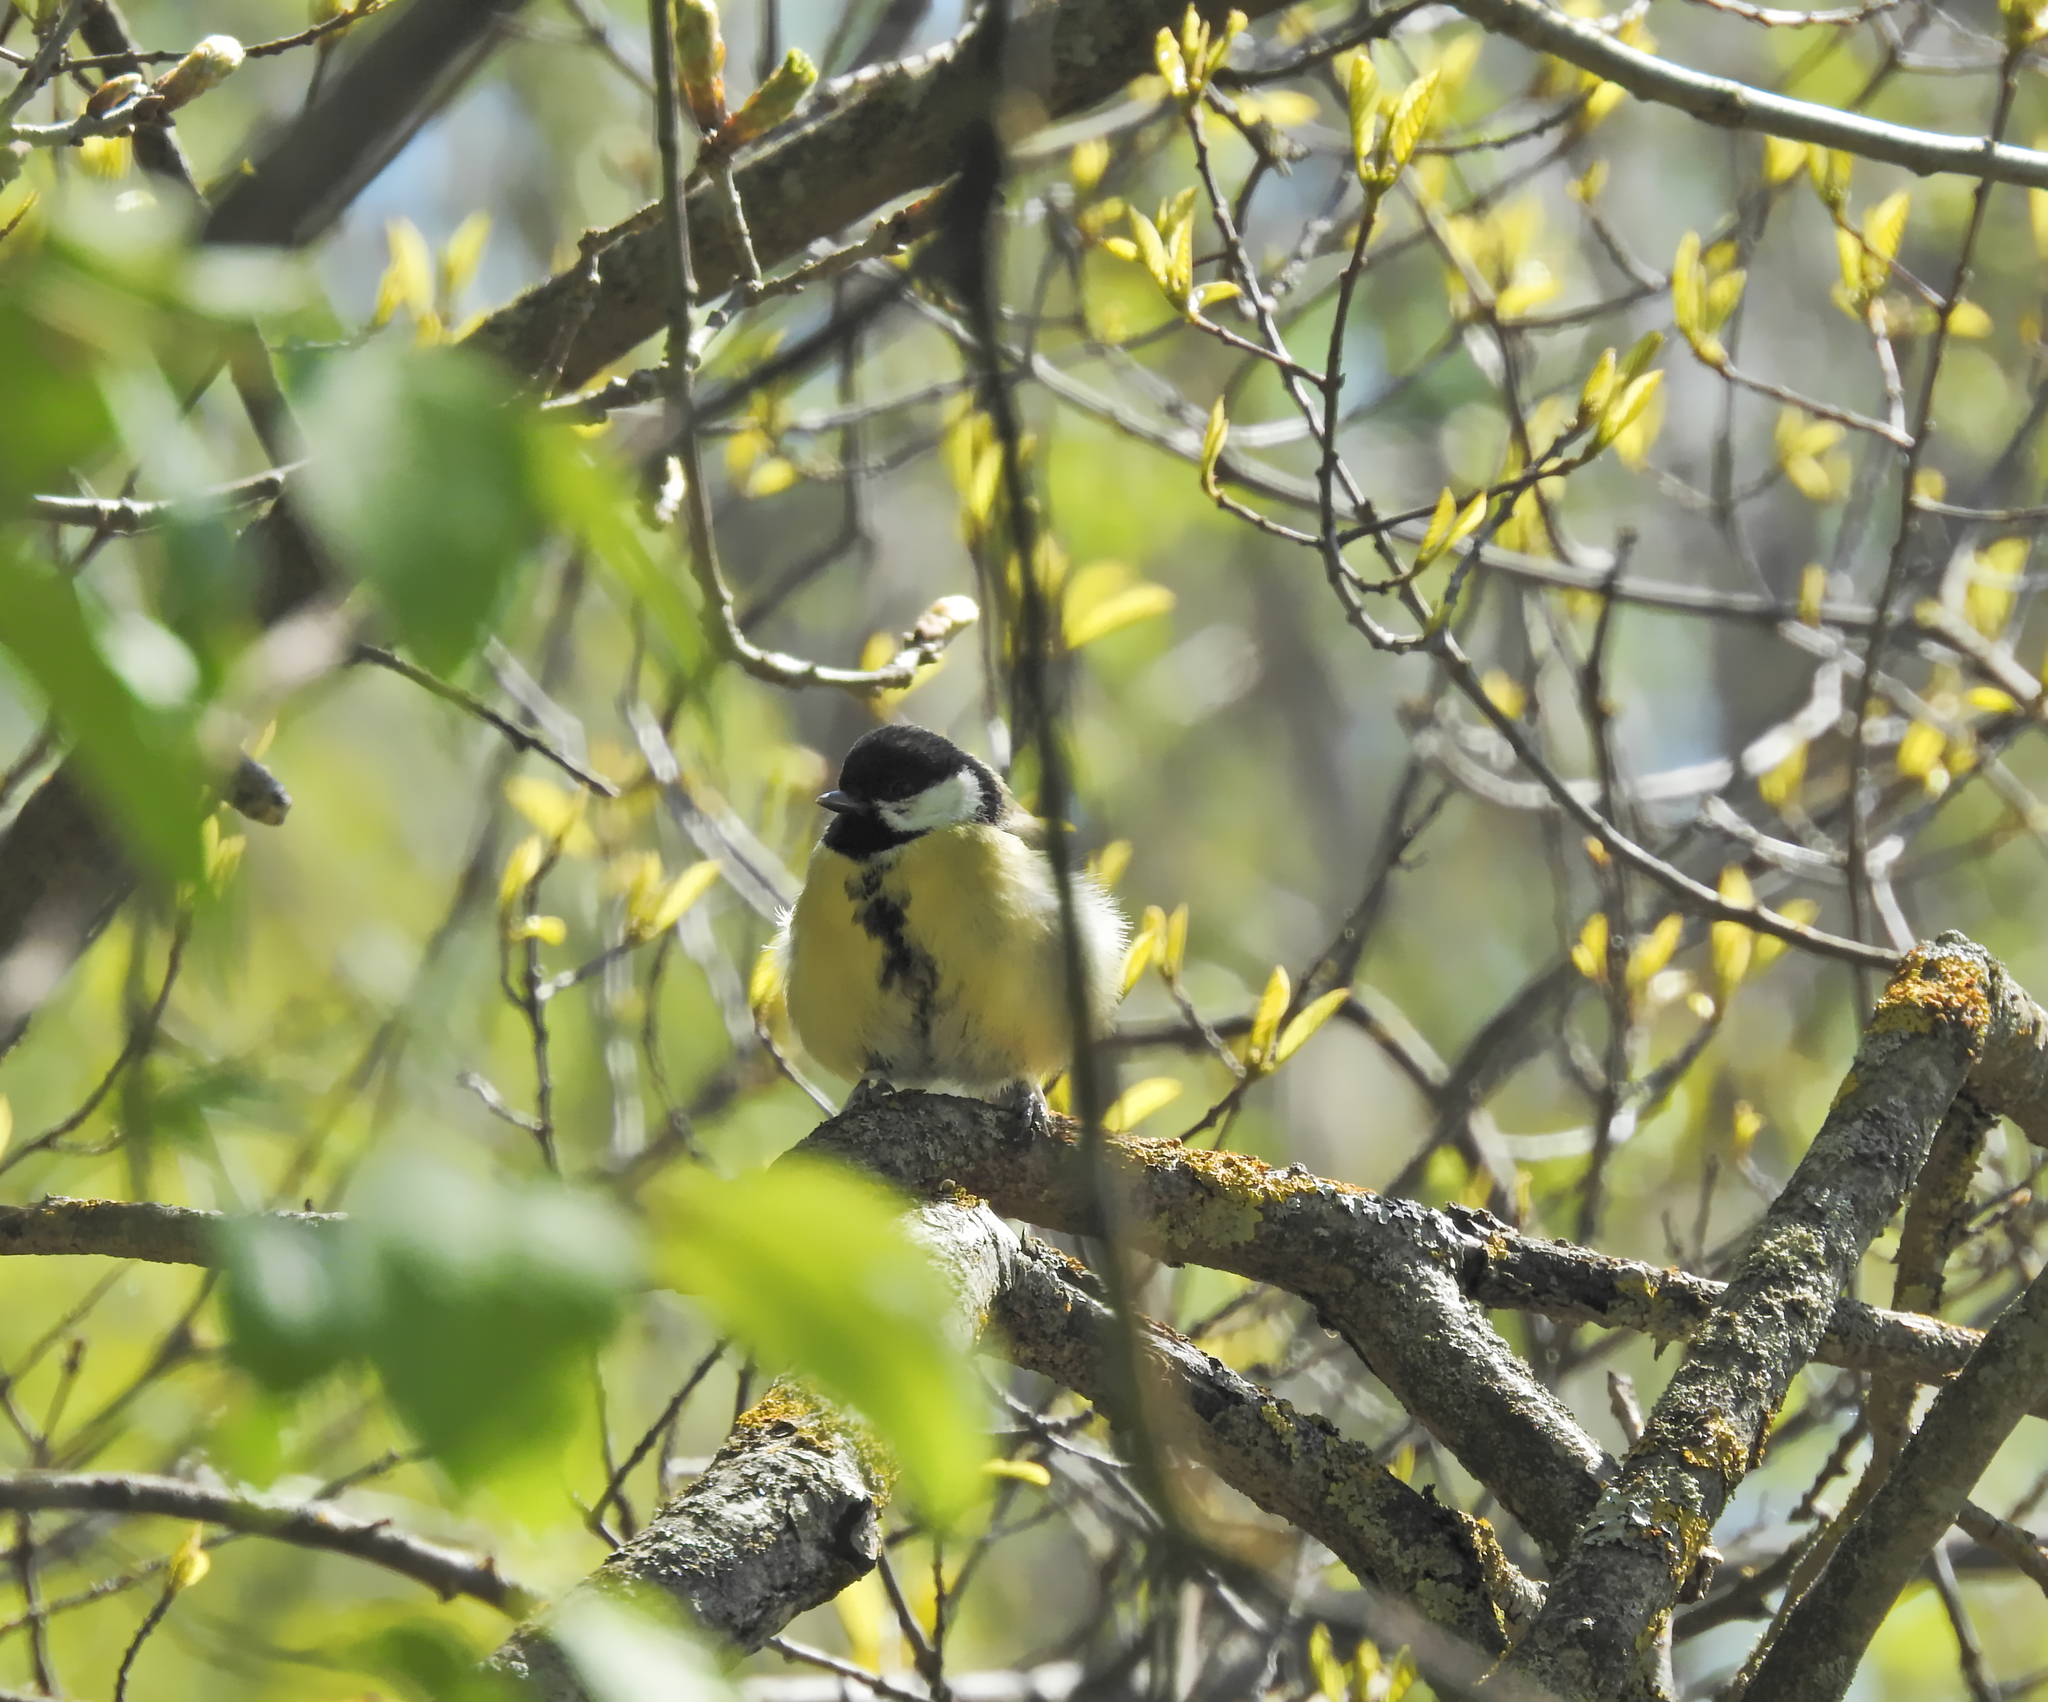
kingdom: Animalia
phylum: Chordata
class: Aves
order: Passeriformes
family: Paridae
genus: Parus
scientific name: Parus major
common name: Great tit
